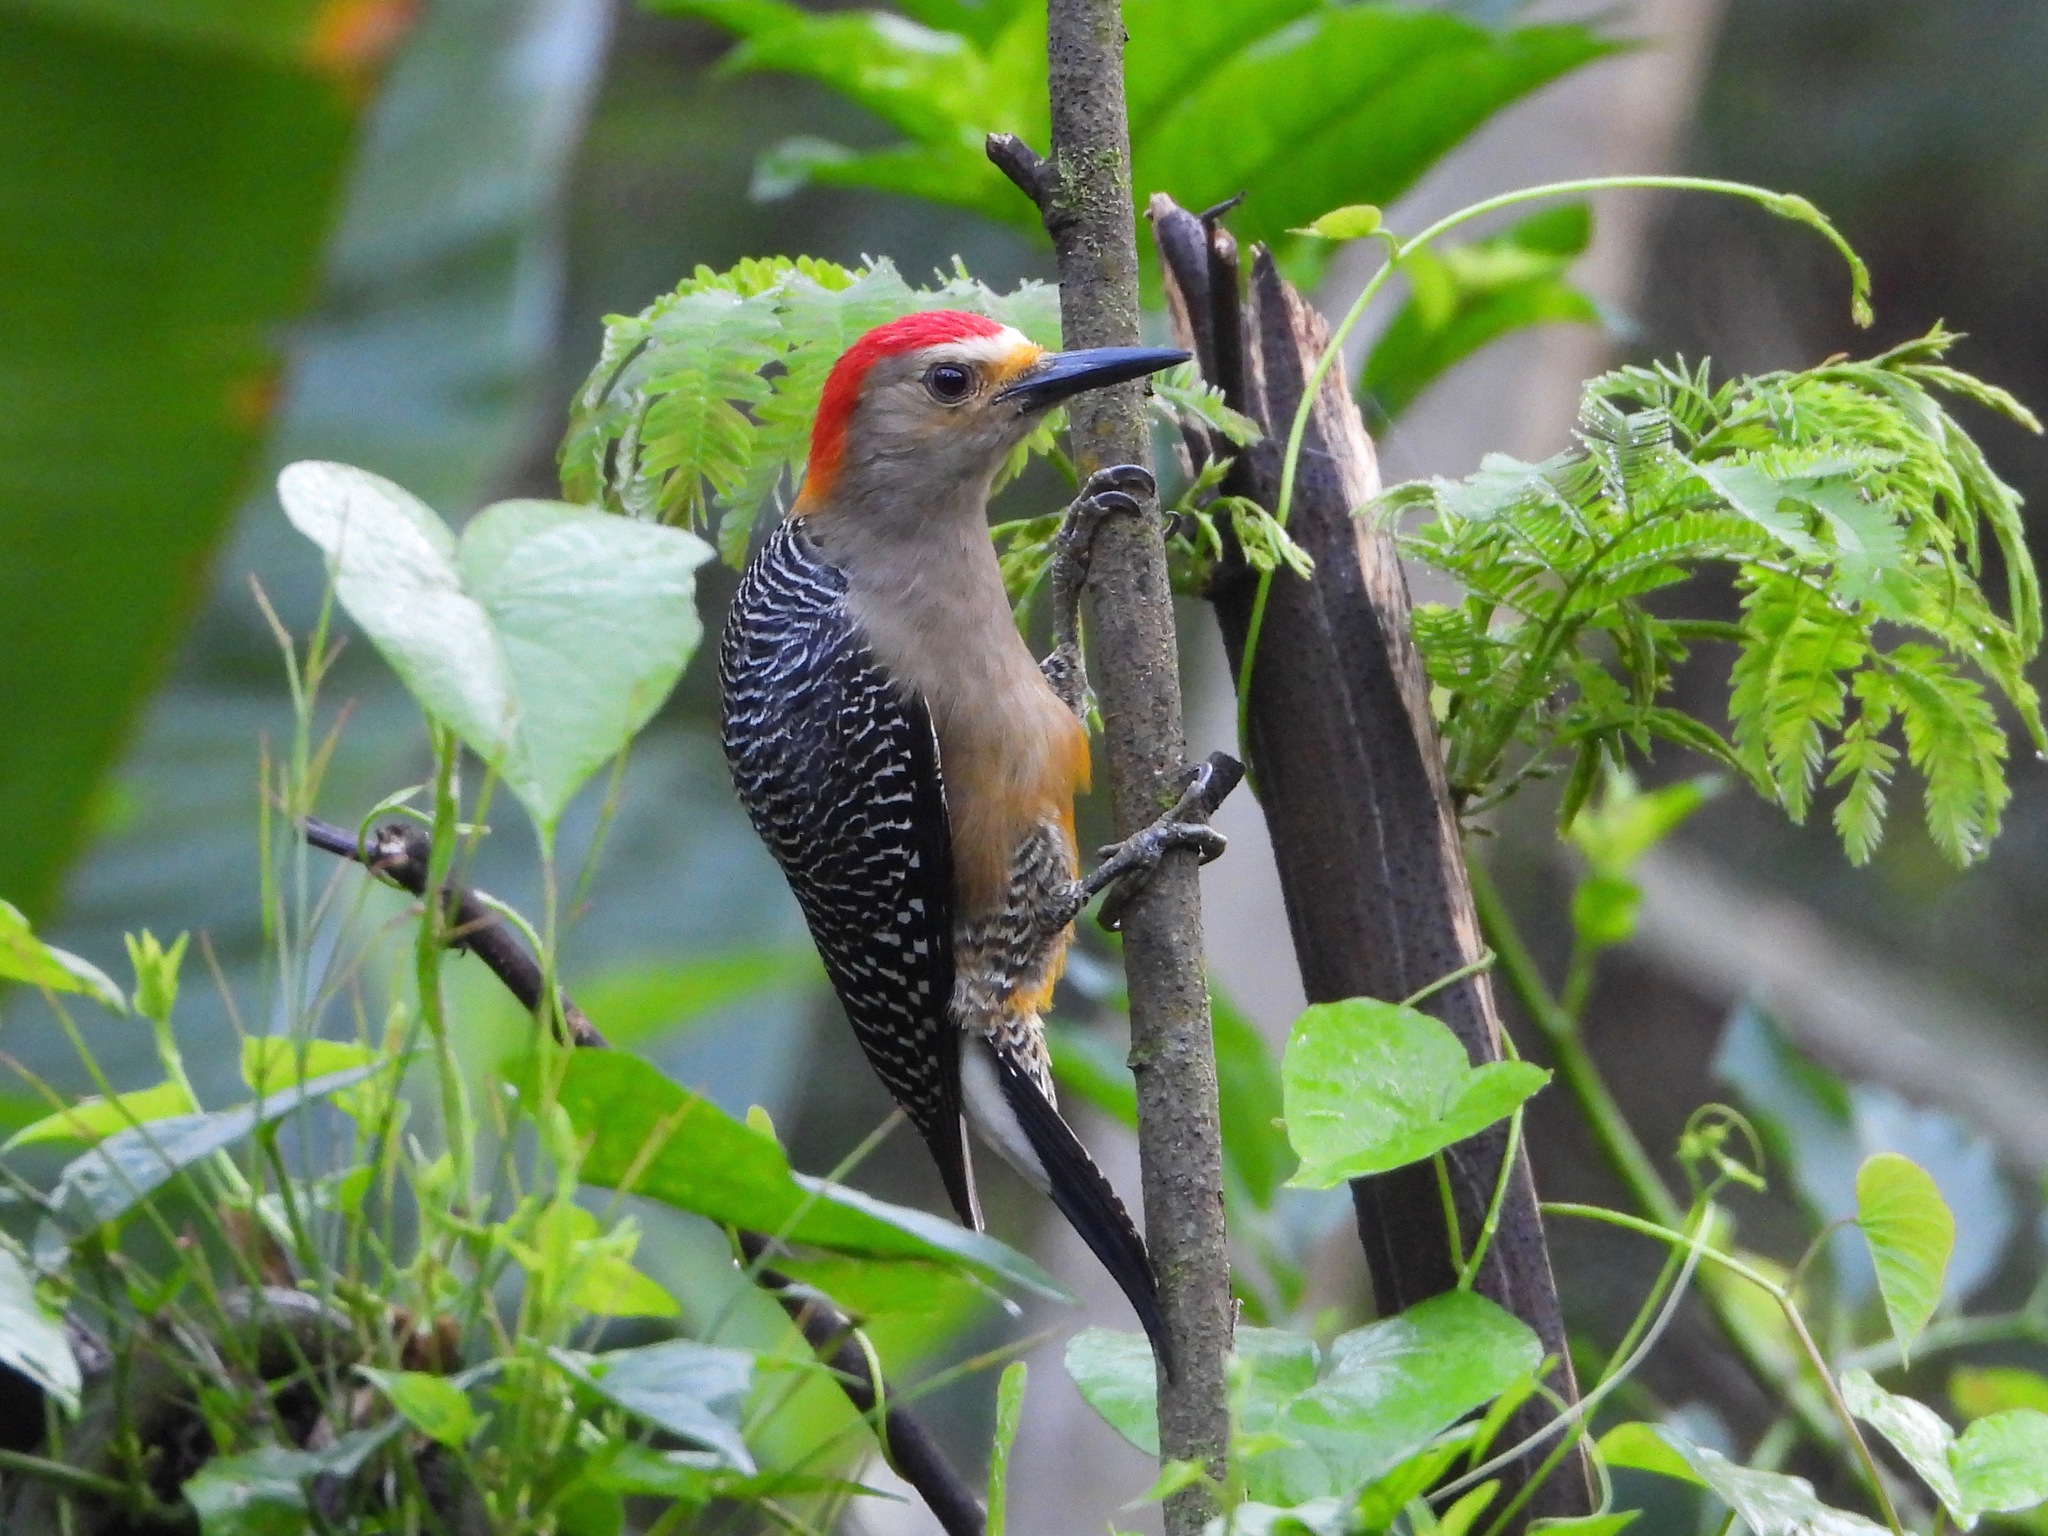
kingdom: Animalia
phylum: Chordata
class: Aves
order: Piciformes
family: Picidae
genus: Melanerpes
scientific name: Melanerpes aurifrons
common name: Golden-fronted woodpecker
